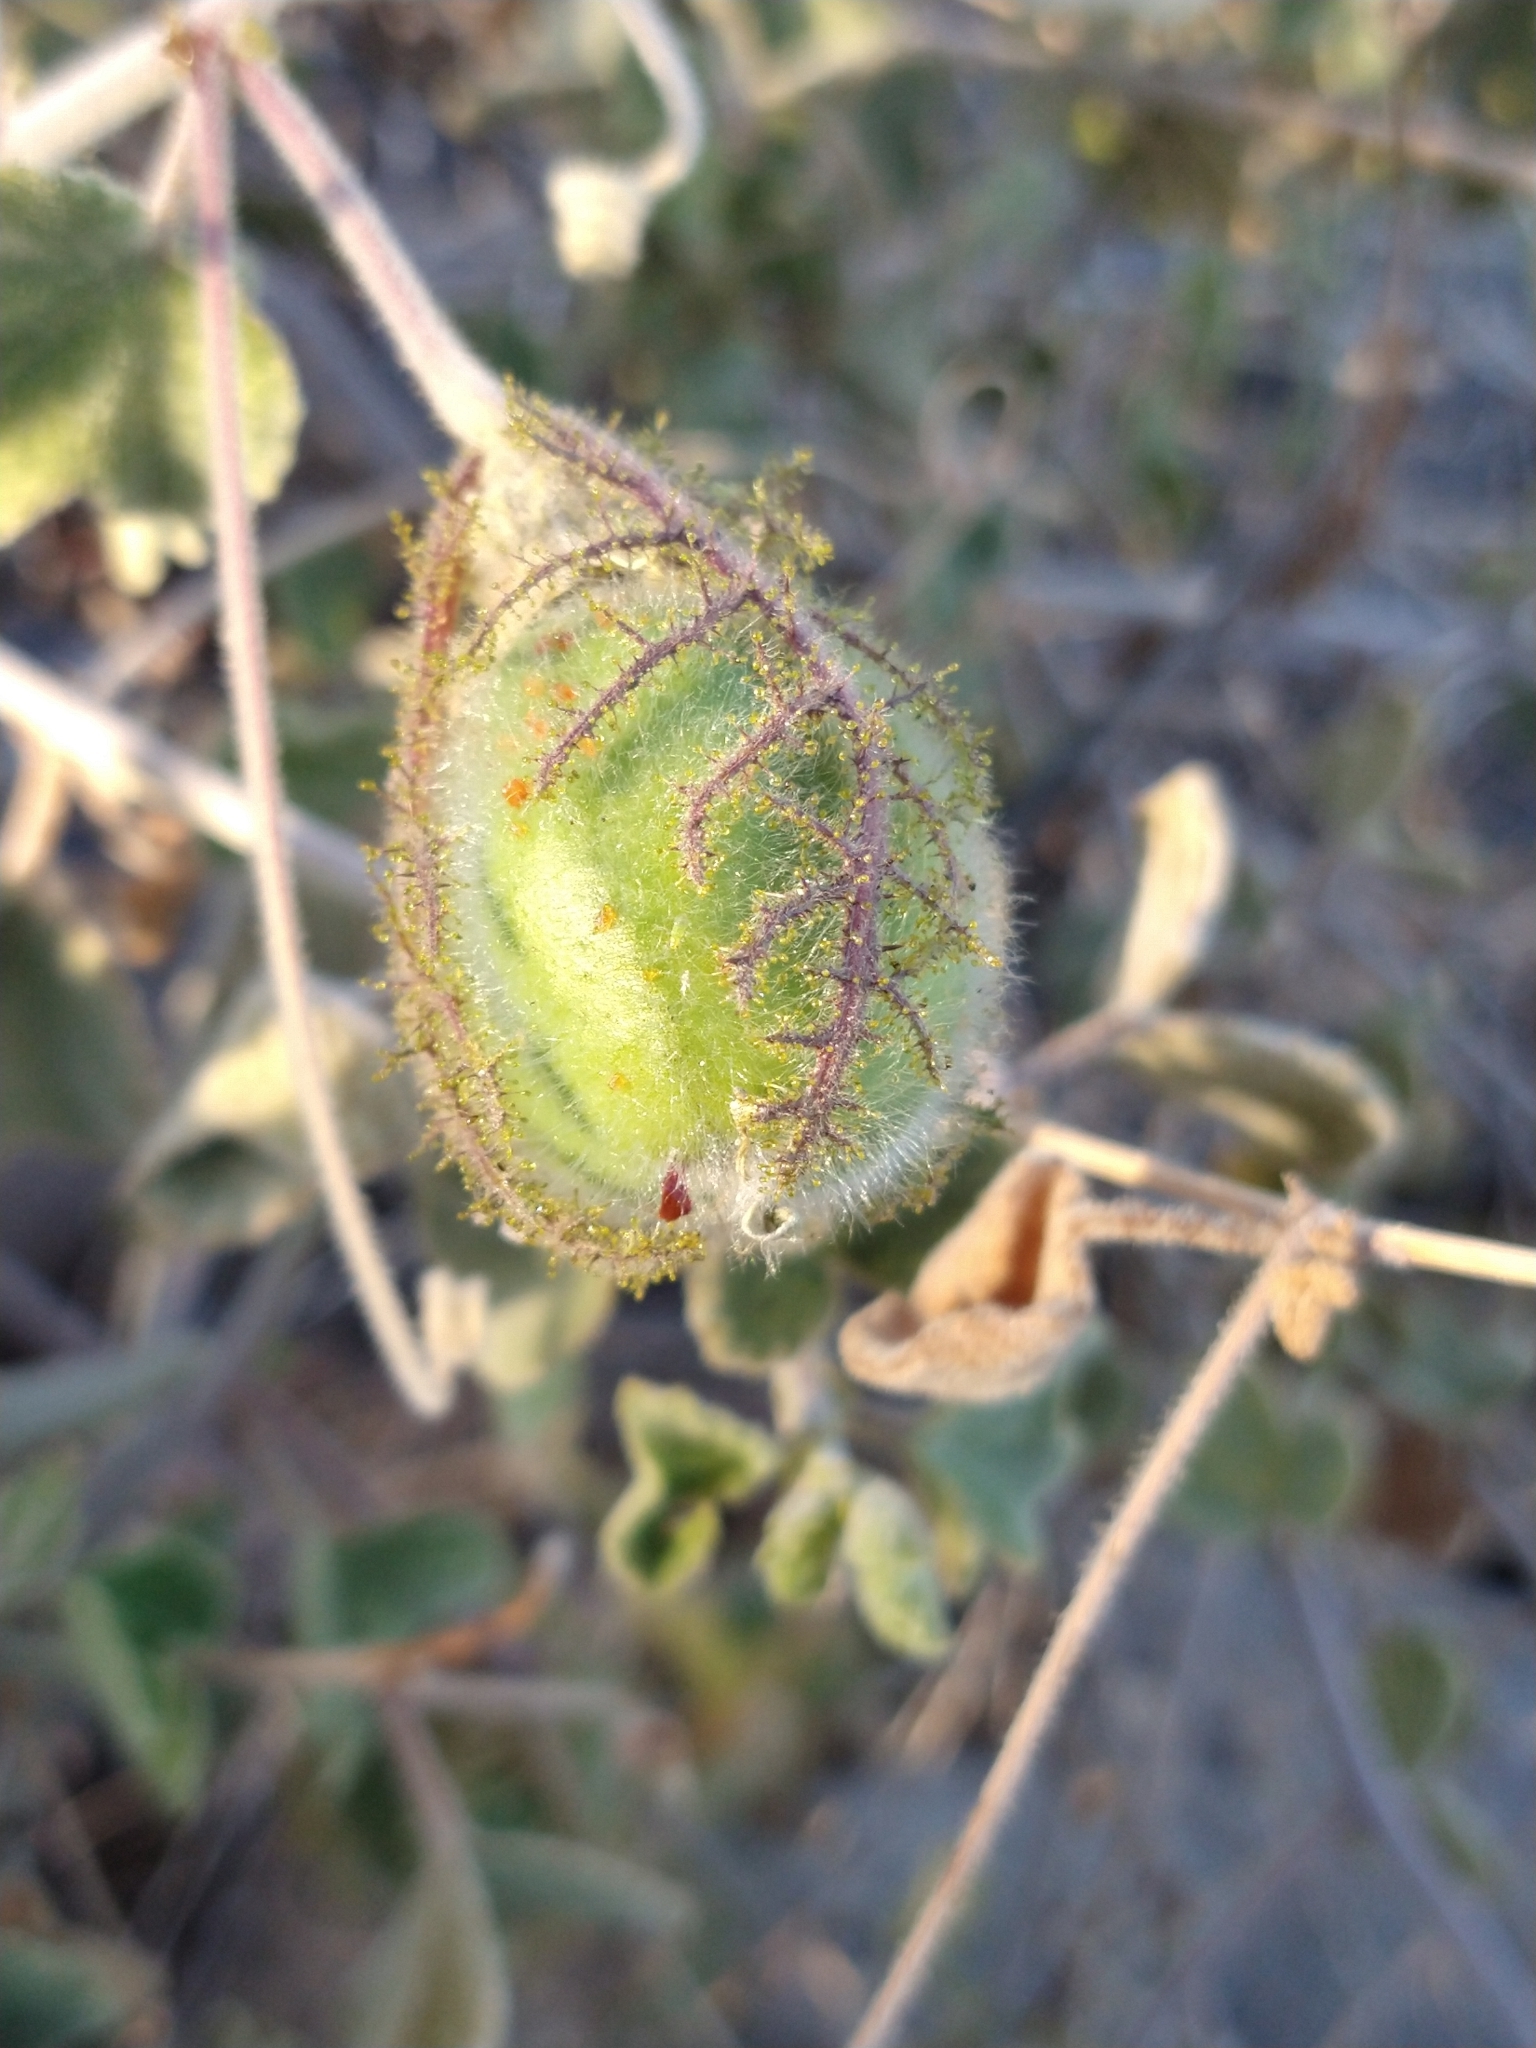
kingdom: Plantae
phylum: Tracheophyta
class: Magnoliopsida
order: Malpighiales
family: Passifloraceae
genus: Passiflora
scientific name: Passiflora arida
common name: Desert passionflower
